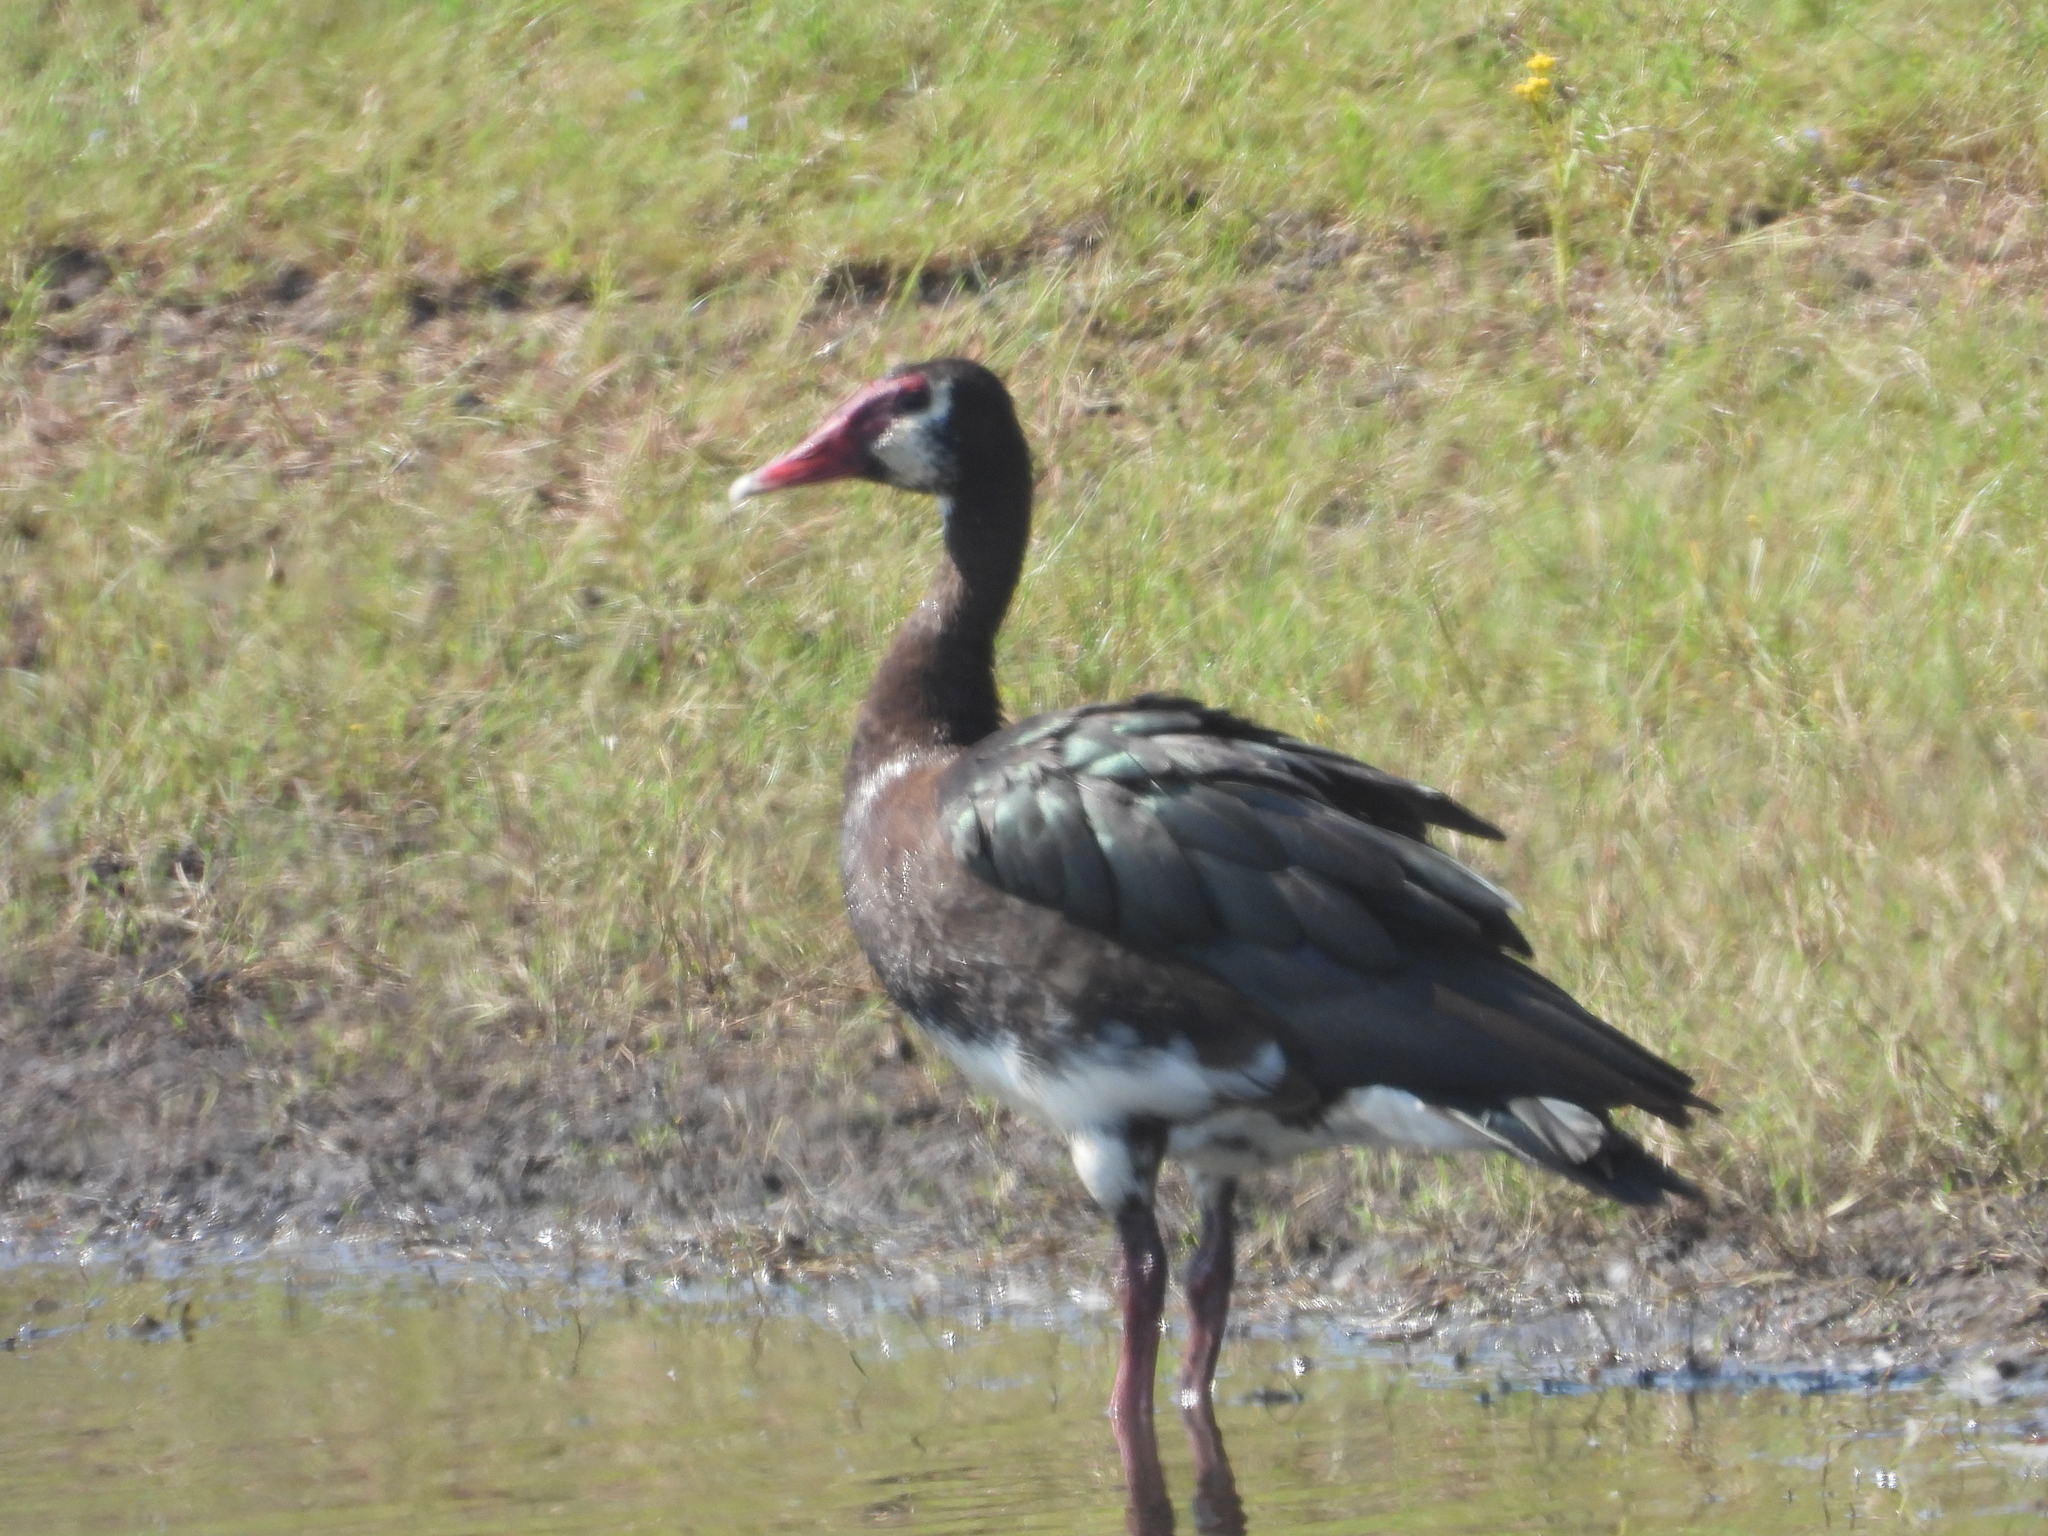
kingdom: Animalia
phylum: Chordata
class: Aves
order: Anseriformes
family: Anatidae
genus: Plectropterus
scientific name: Plectropterus gambensis
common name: Spur-winged goose
